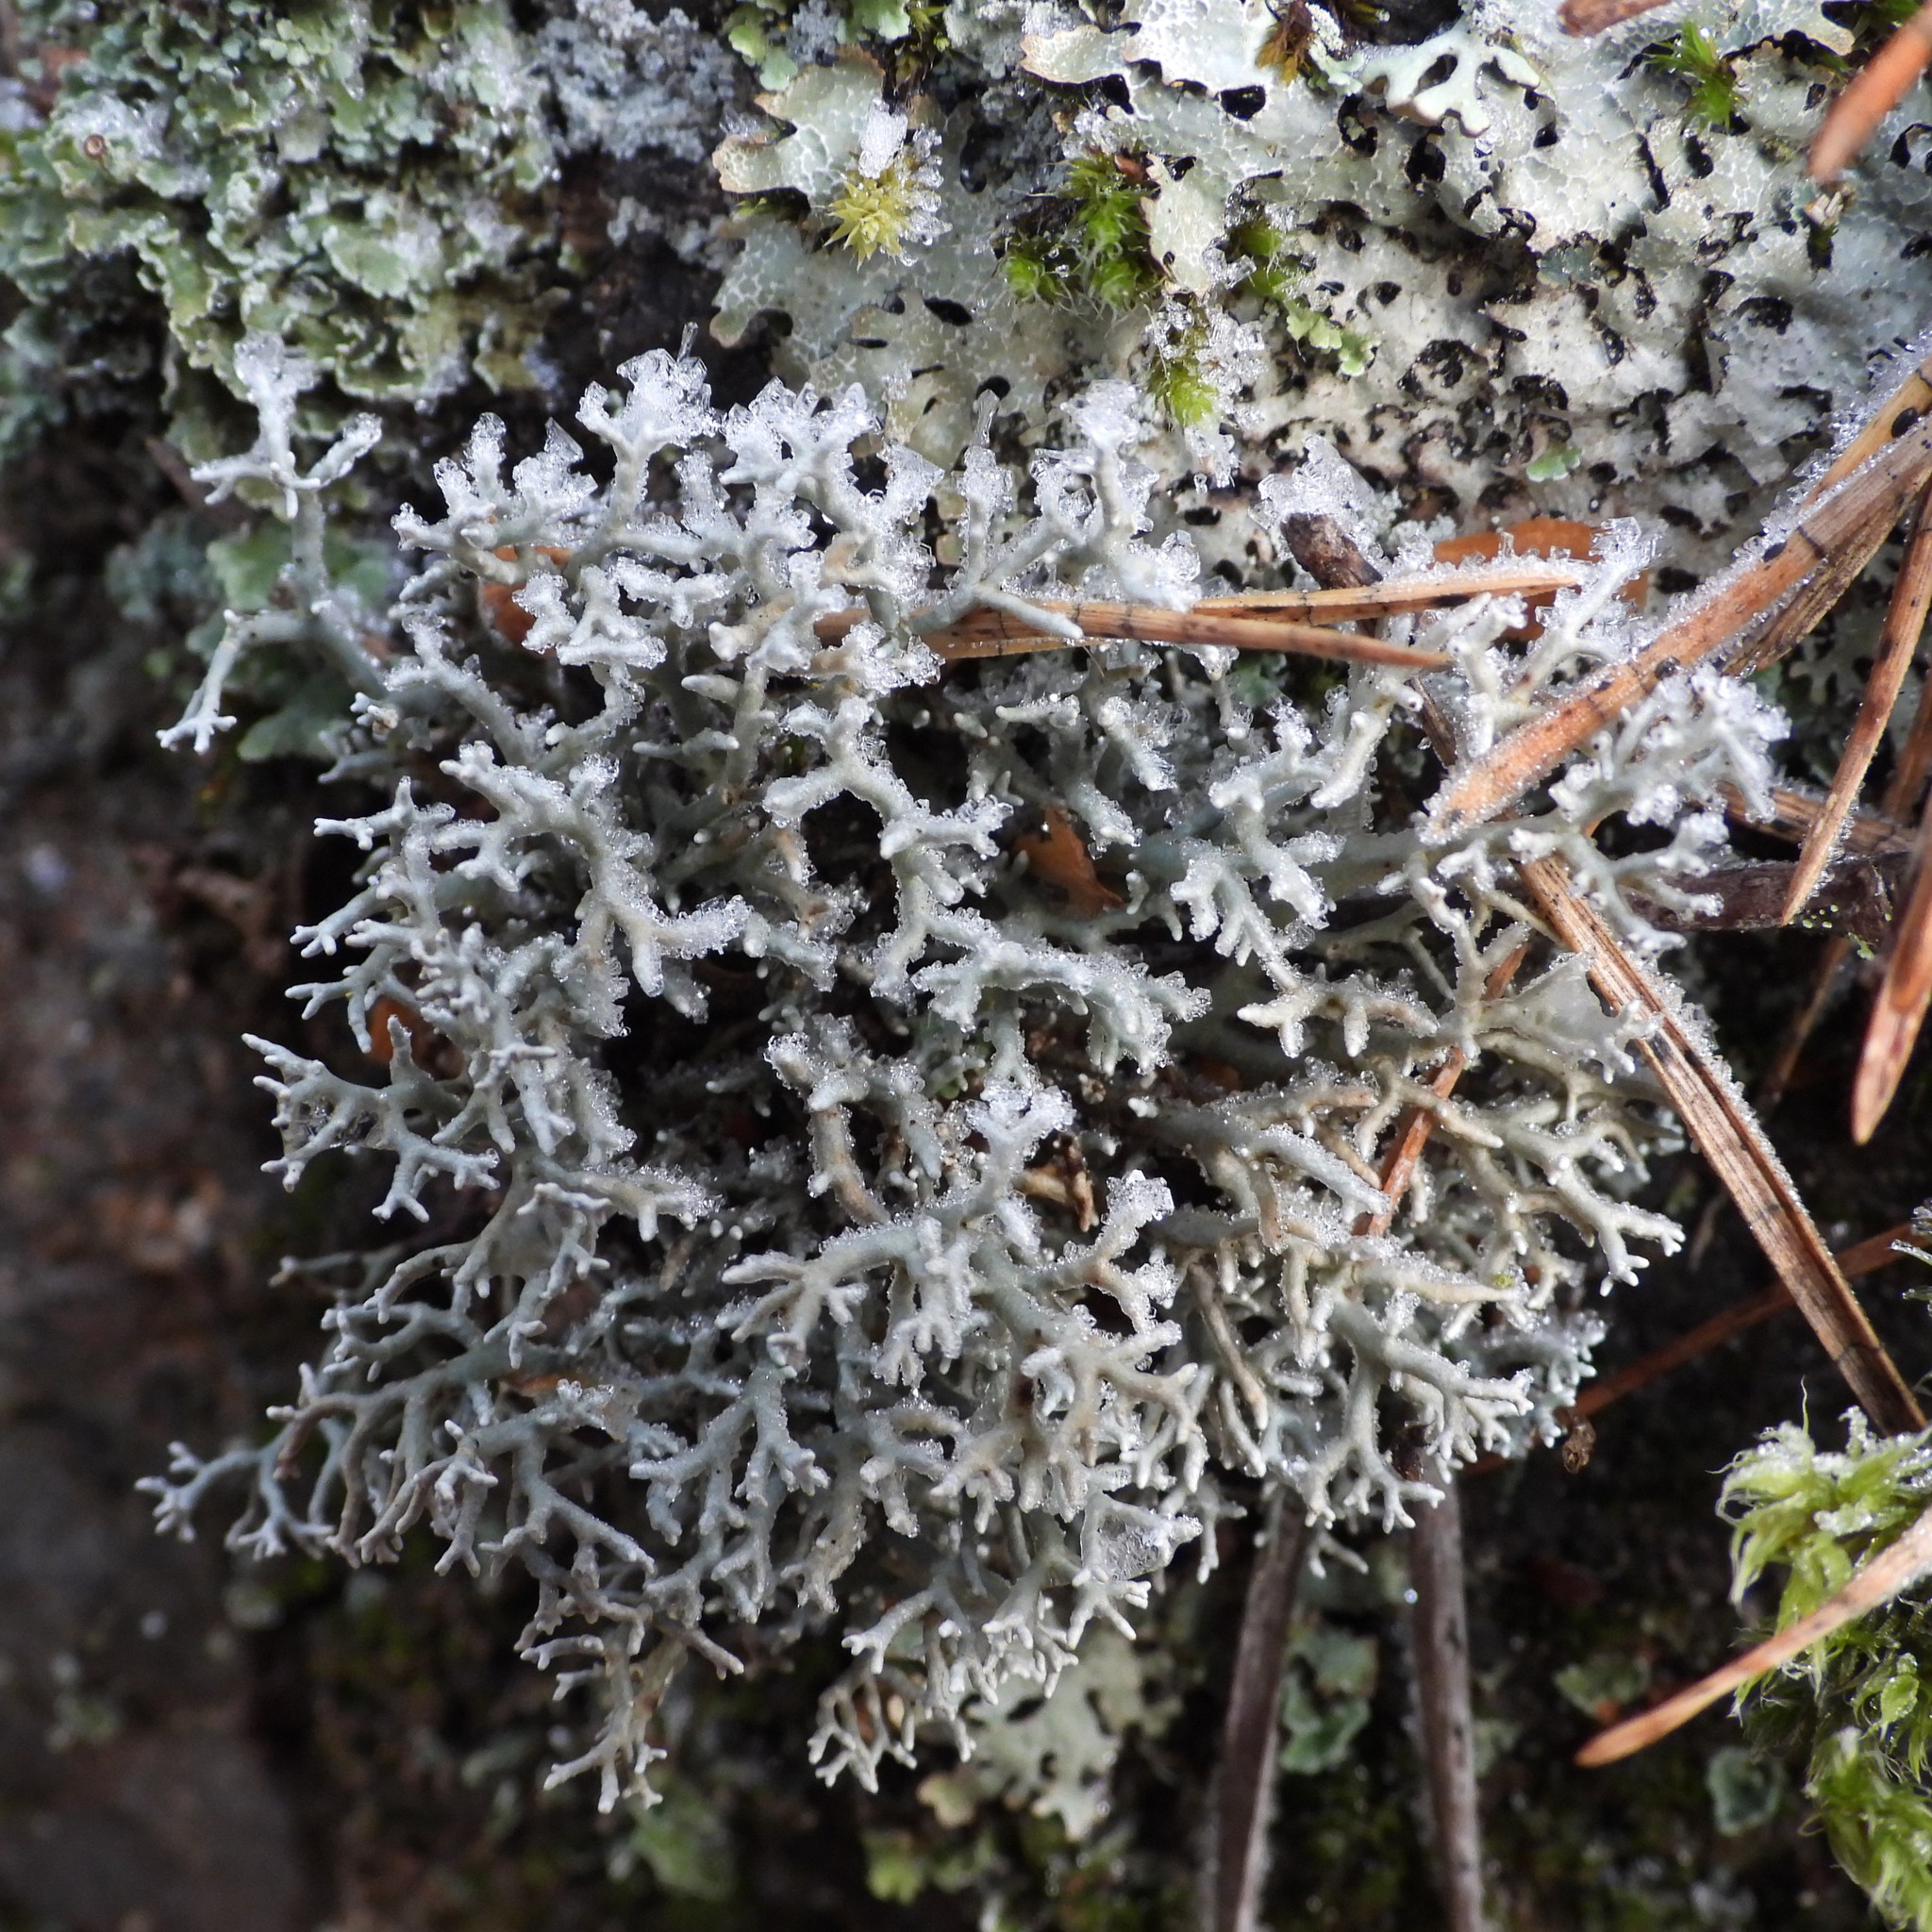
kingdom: Fungi
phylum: Ascomycota
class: Lecanoromycetes
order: Lecanorales
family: Sphaerophoraceae
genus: Sphaerophorus
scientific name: Sphaerophorus fragilis
